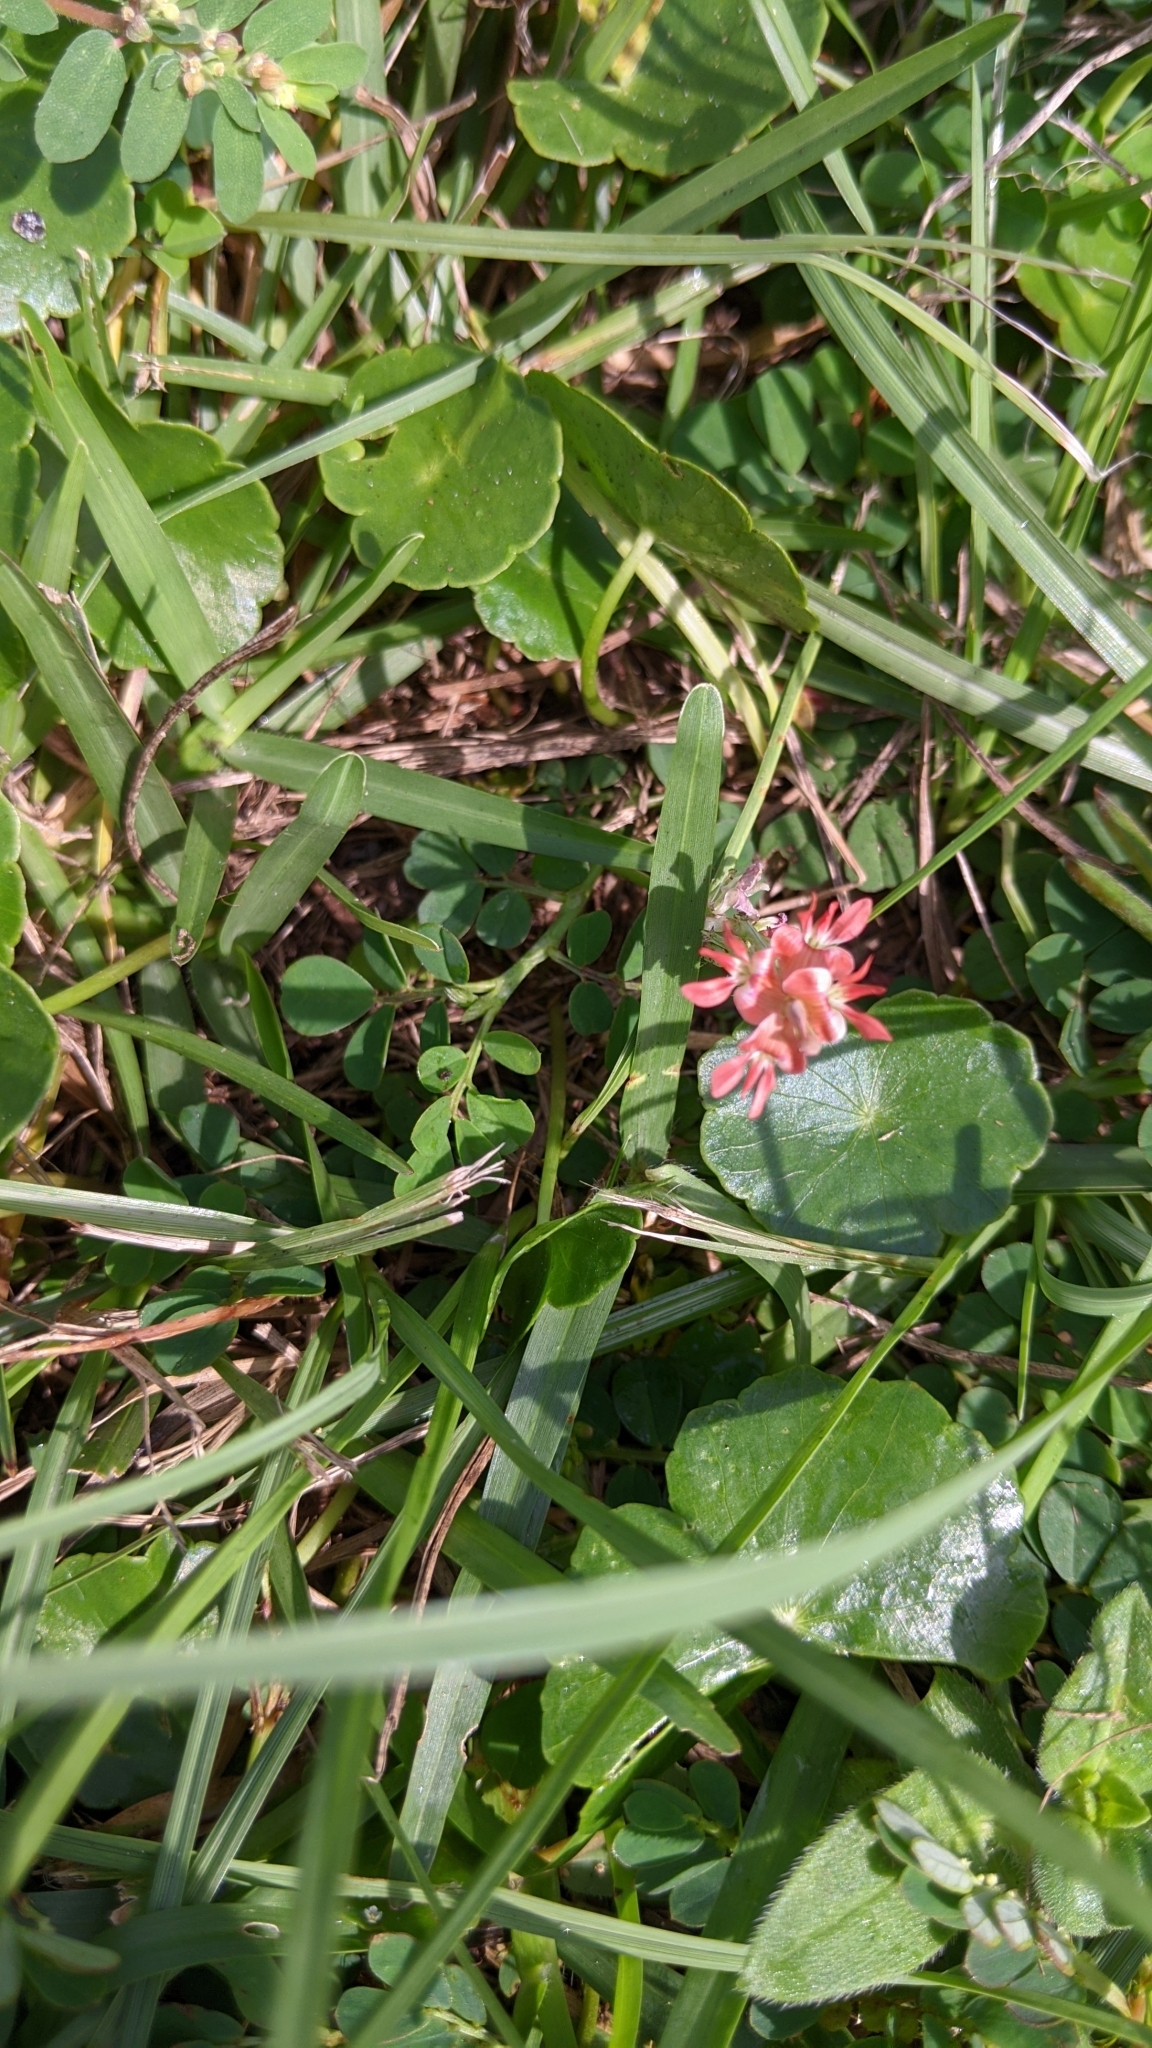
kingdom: Plantae
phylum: Tracheophyta
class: Magnoliopsida
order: Fabales
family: Fabaceae
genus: Indigofera
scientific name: Indigofera spicata
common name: Creeping indigo
